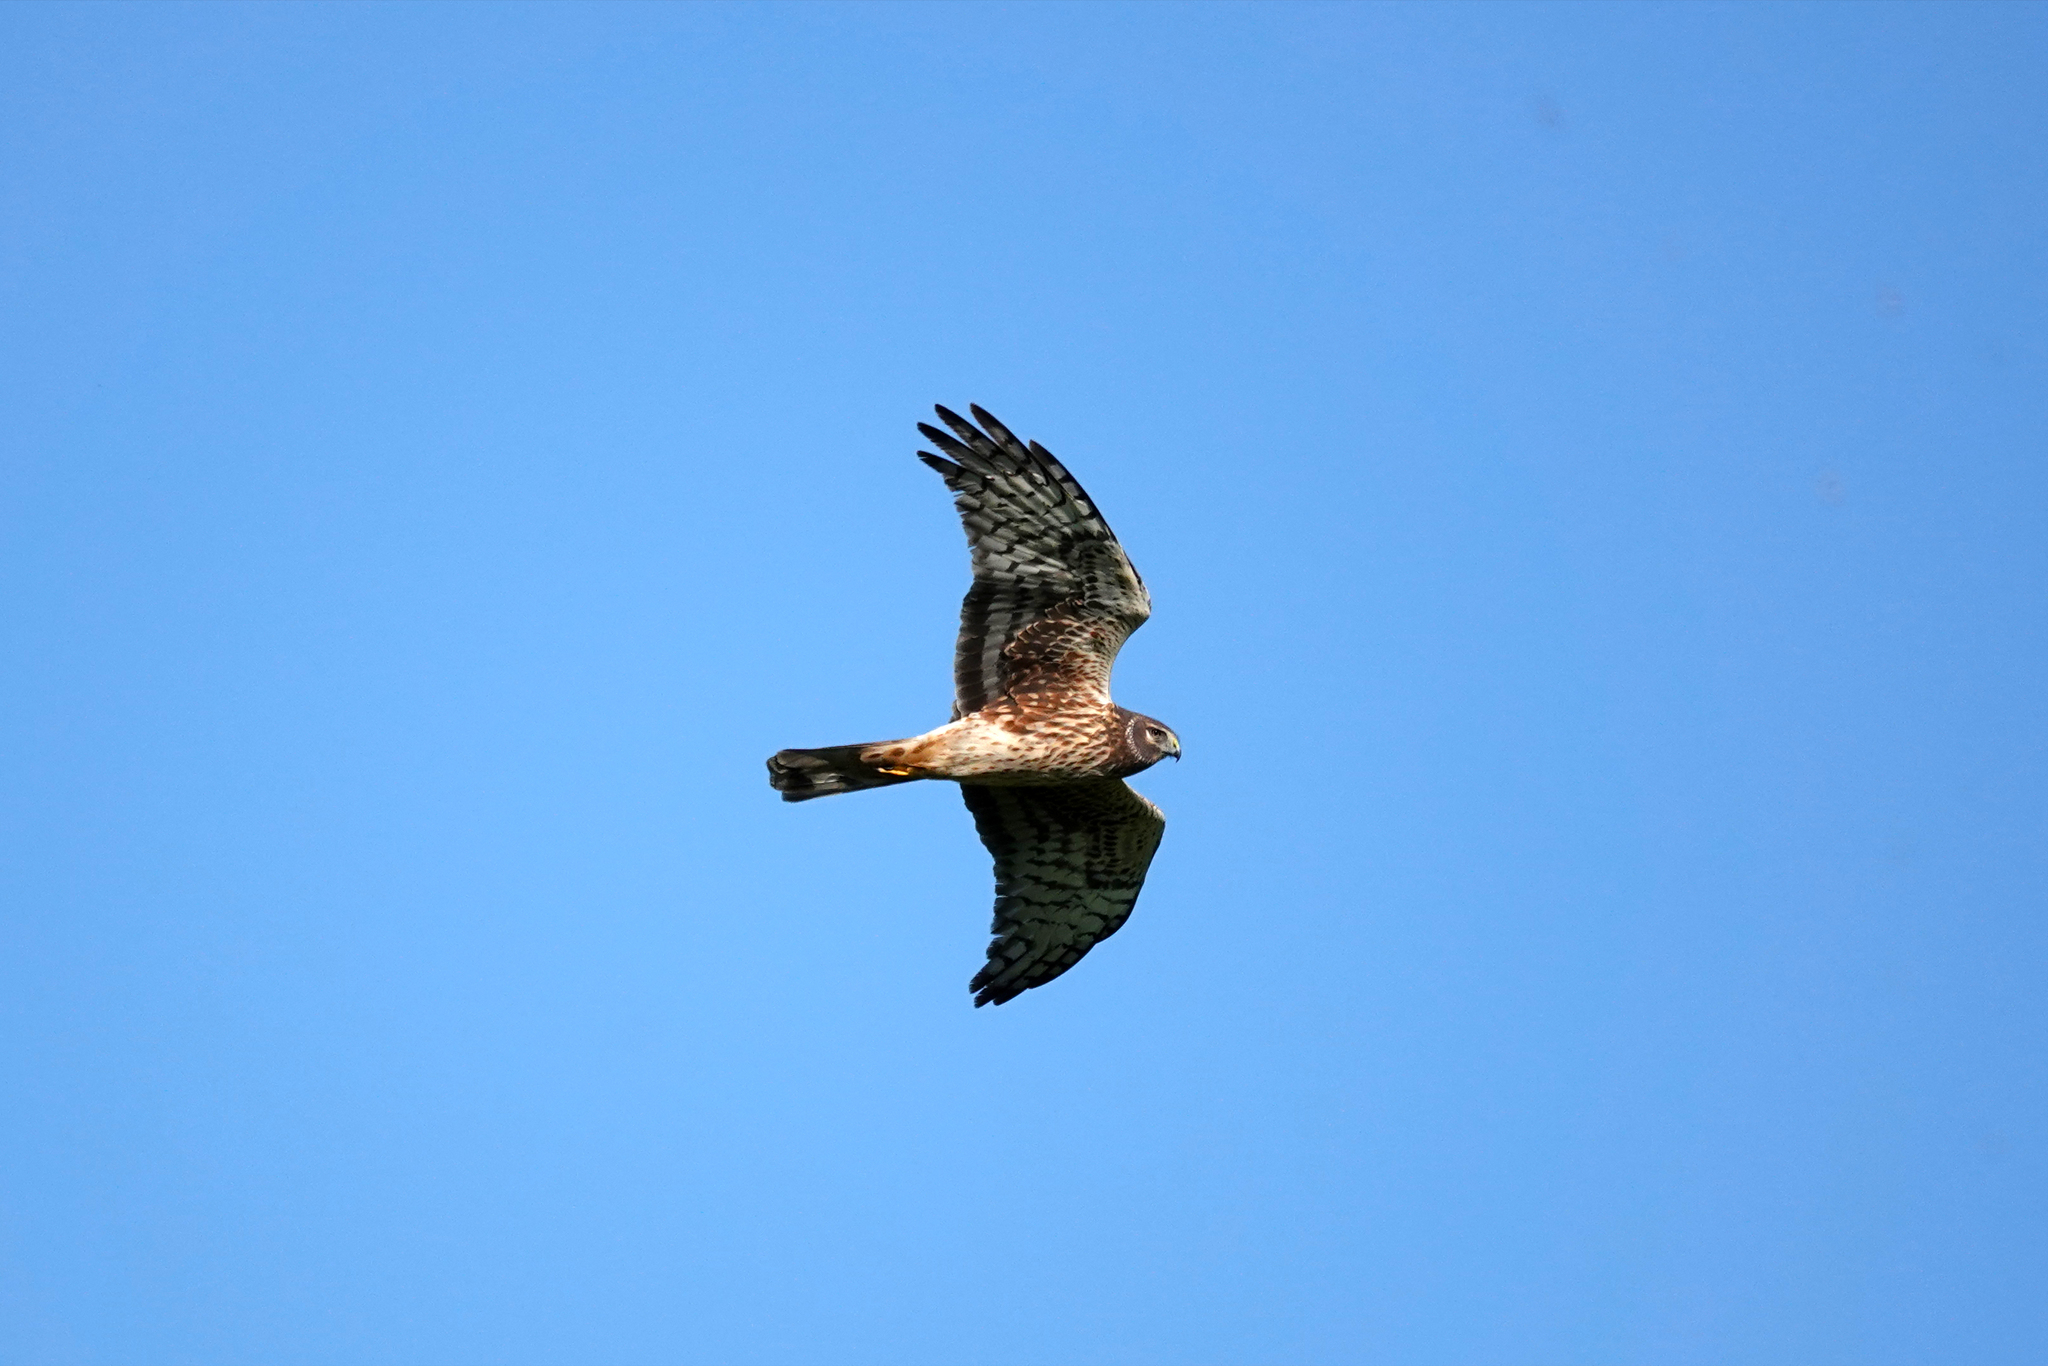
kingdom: Animalia
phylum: Chordata
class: Aves
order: Accipitriformes
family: Accipitridae
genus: Circus
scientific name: Circus cyaneus
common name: Hen harrier
